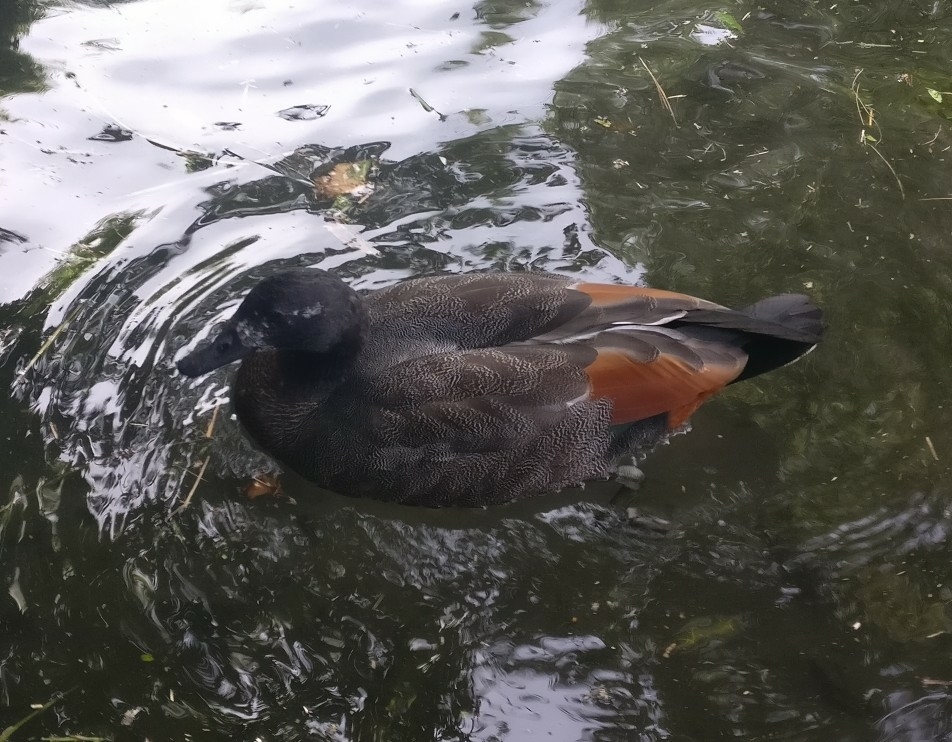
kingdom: Animalia
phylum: Chordata
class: Aves
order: Anseriformes
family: Anatidae
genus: Tadorna
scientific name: Tadorna variegata
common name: Paradise shelduck
